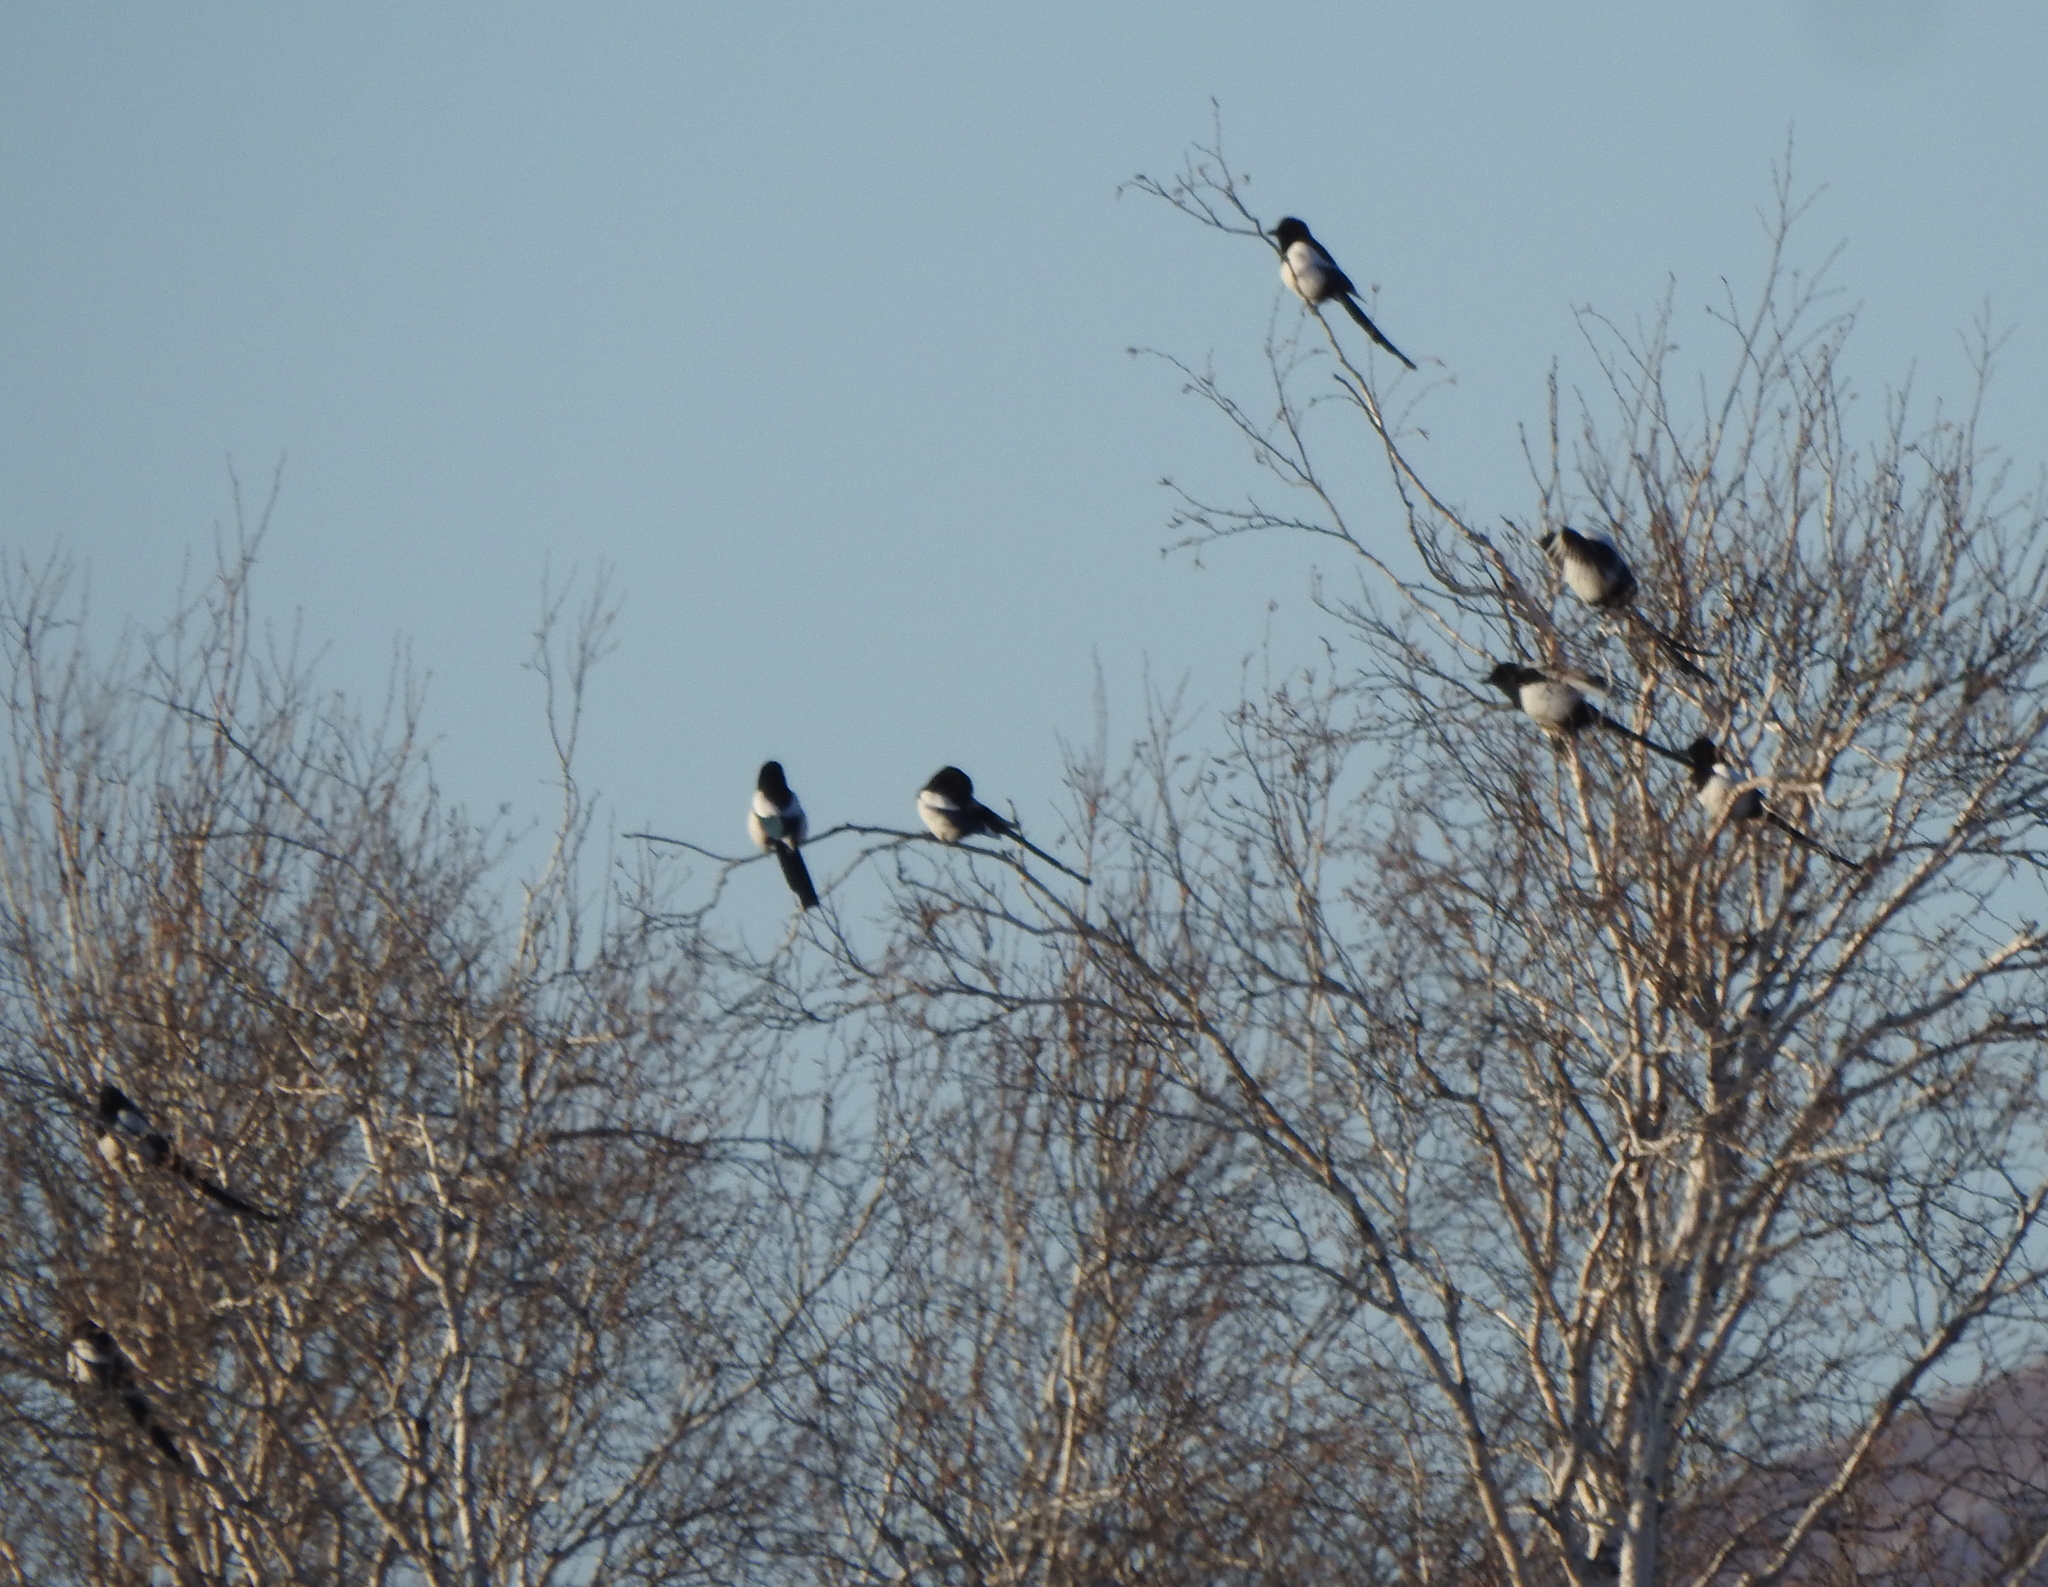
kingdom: Animalia
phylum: Chordata
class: Aves
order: Passeriformes
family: Corvidae
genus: Pica
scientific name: Pica pica
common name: Eurasian magpie
